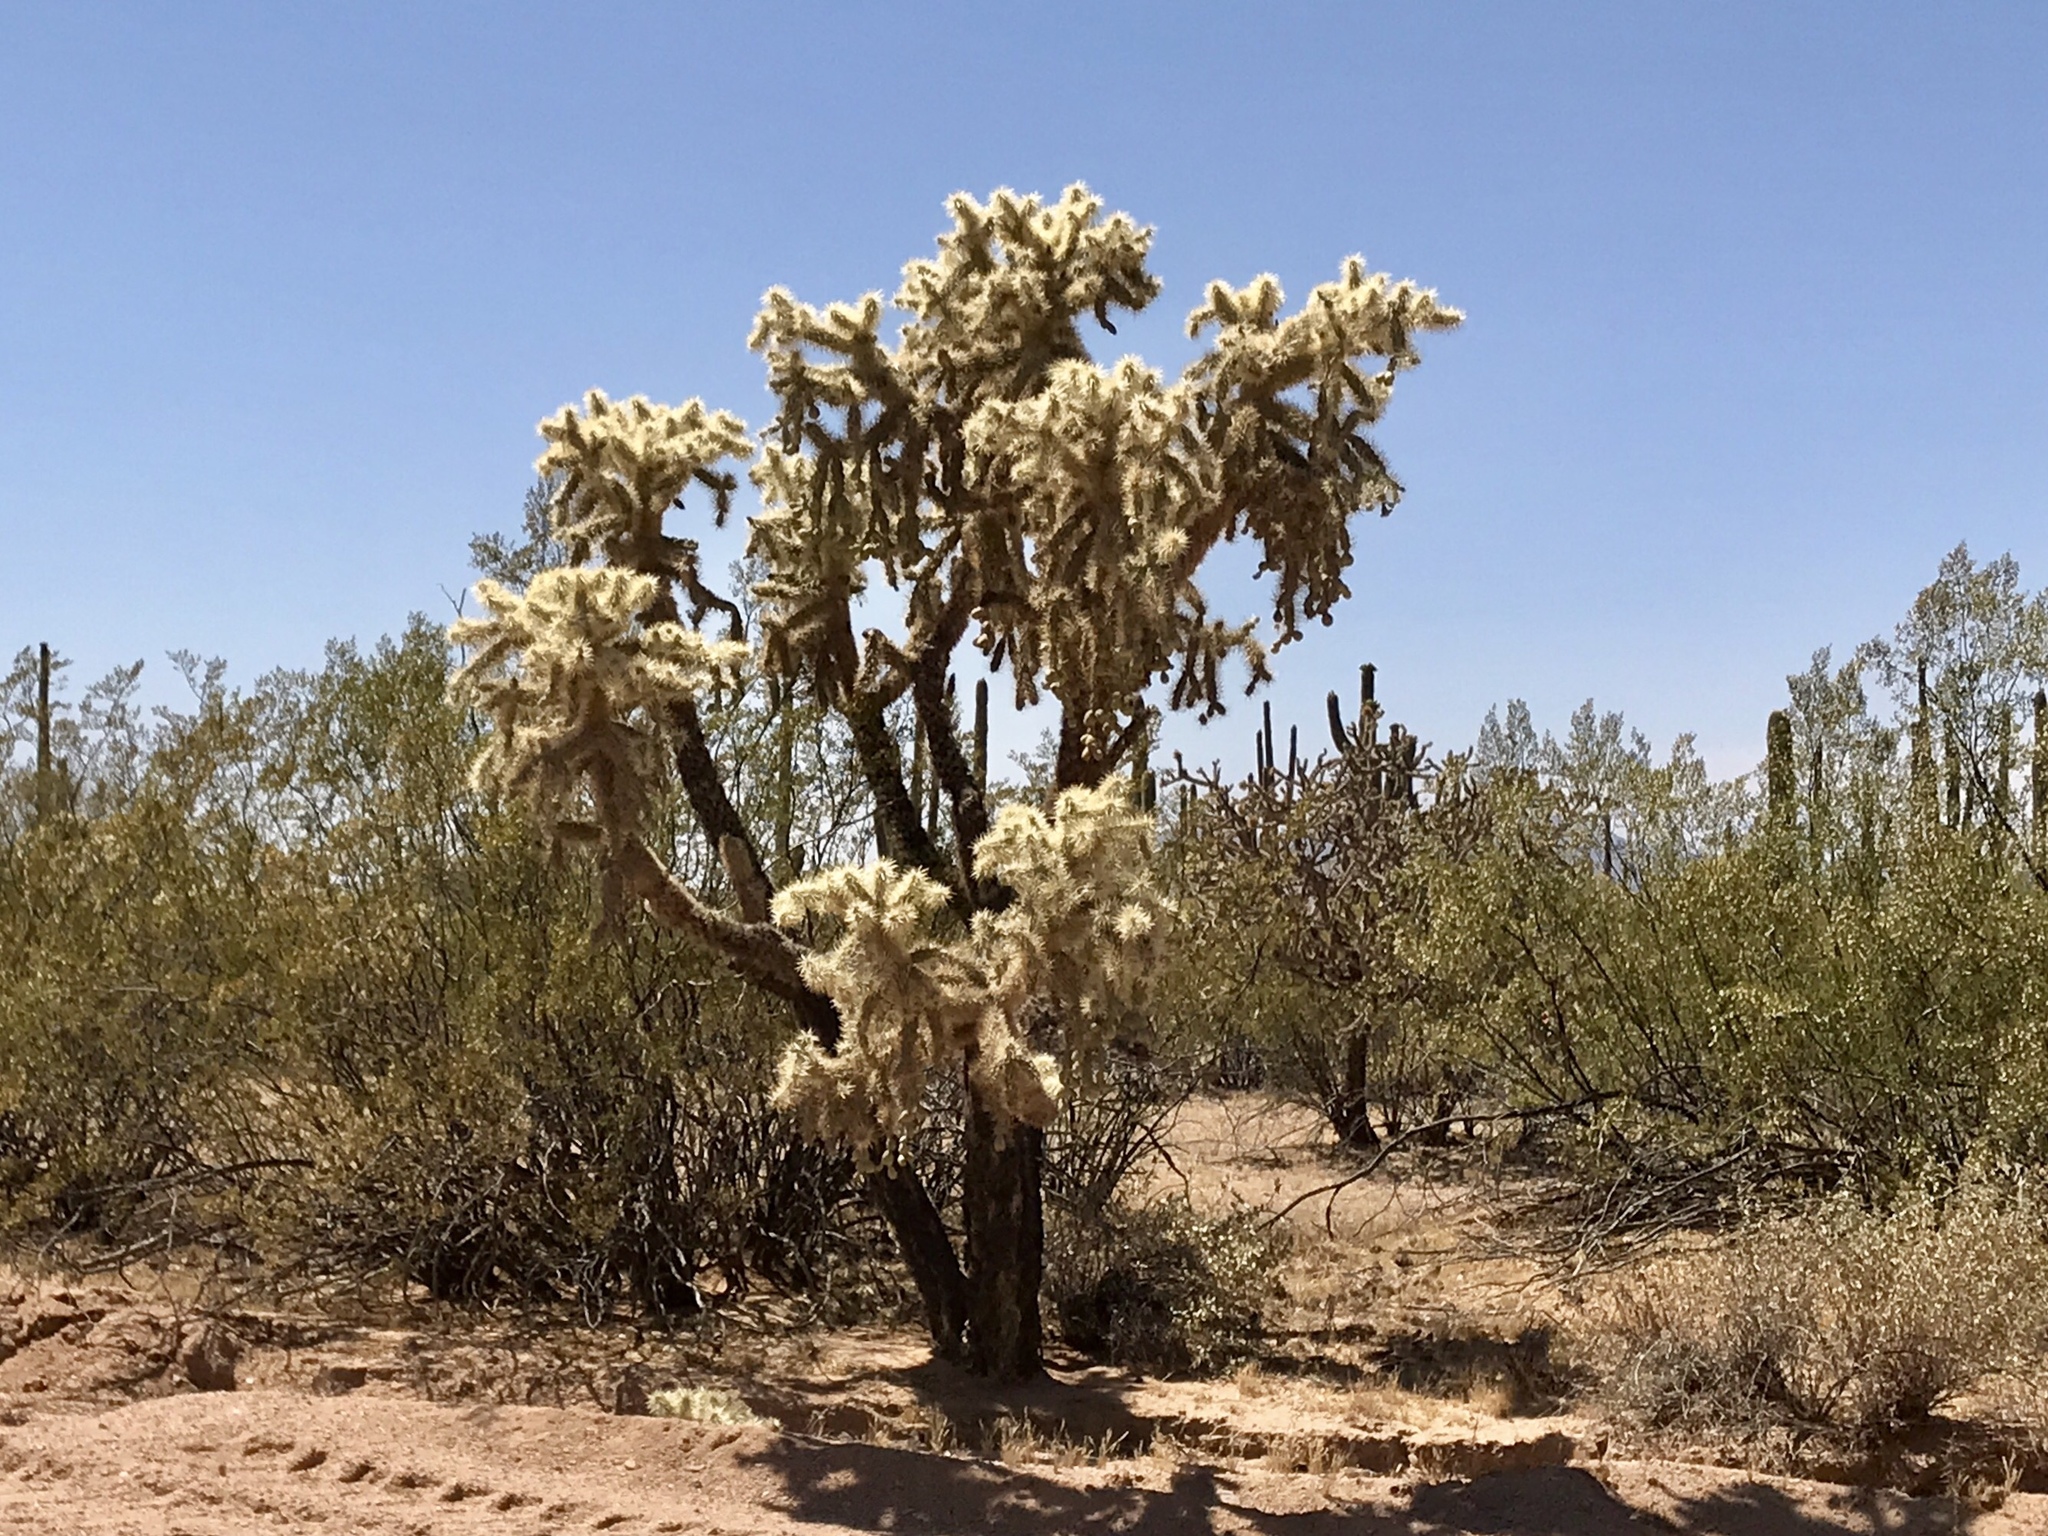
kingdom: Plantae
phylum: Tracheophyta
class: Magnoliopsida
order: Caryophyllales
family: Cactaceae
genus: Cylindropuntia
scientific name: Cylindropuntia fulgida
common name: Jumping cholla
